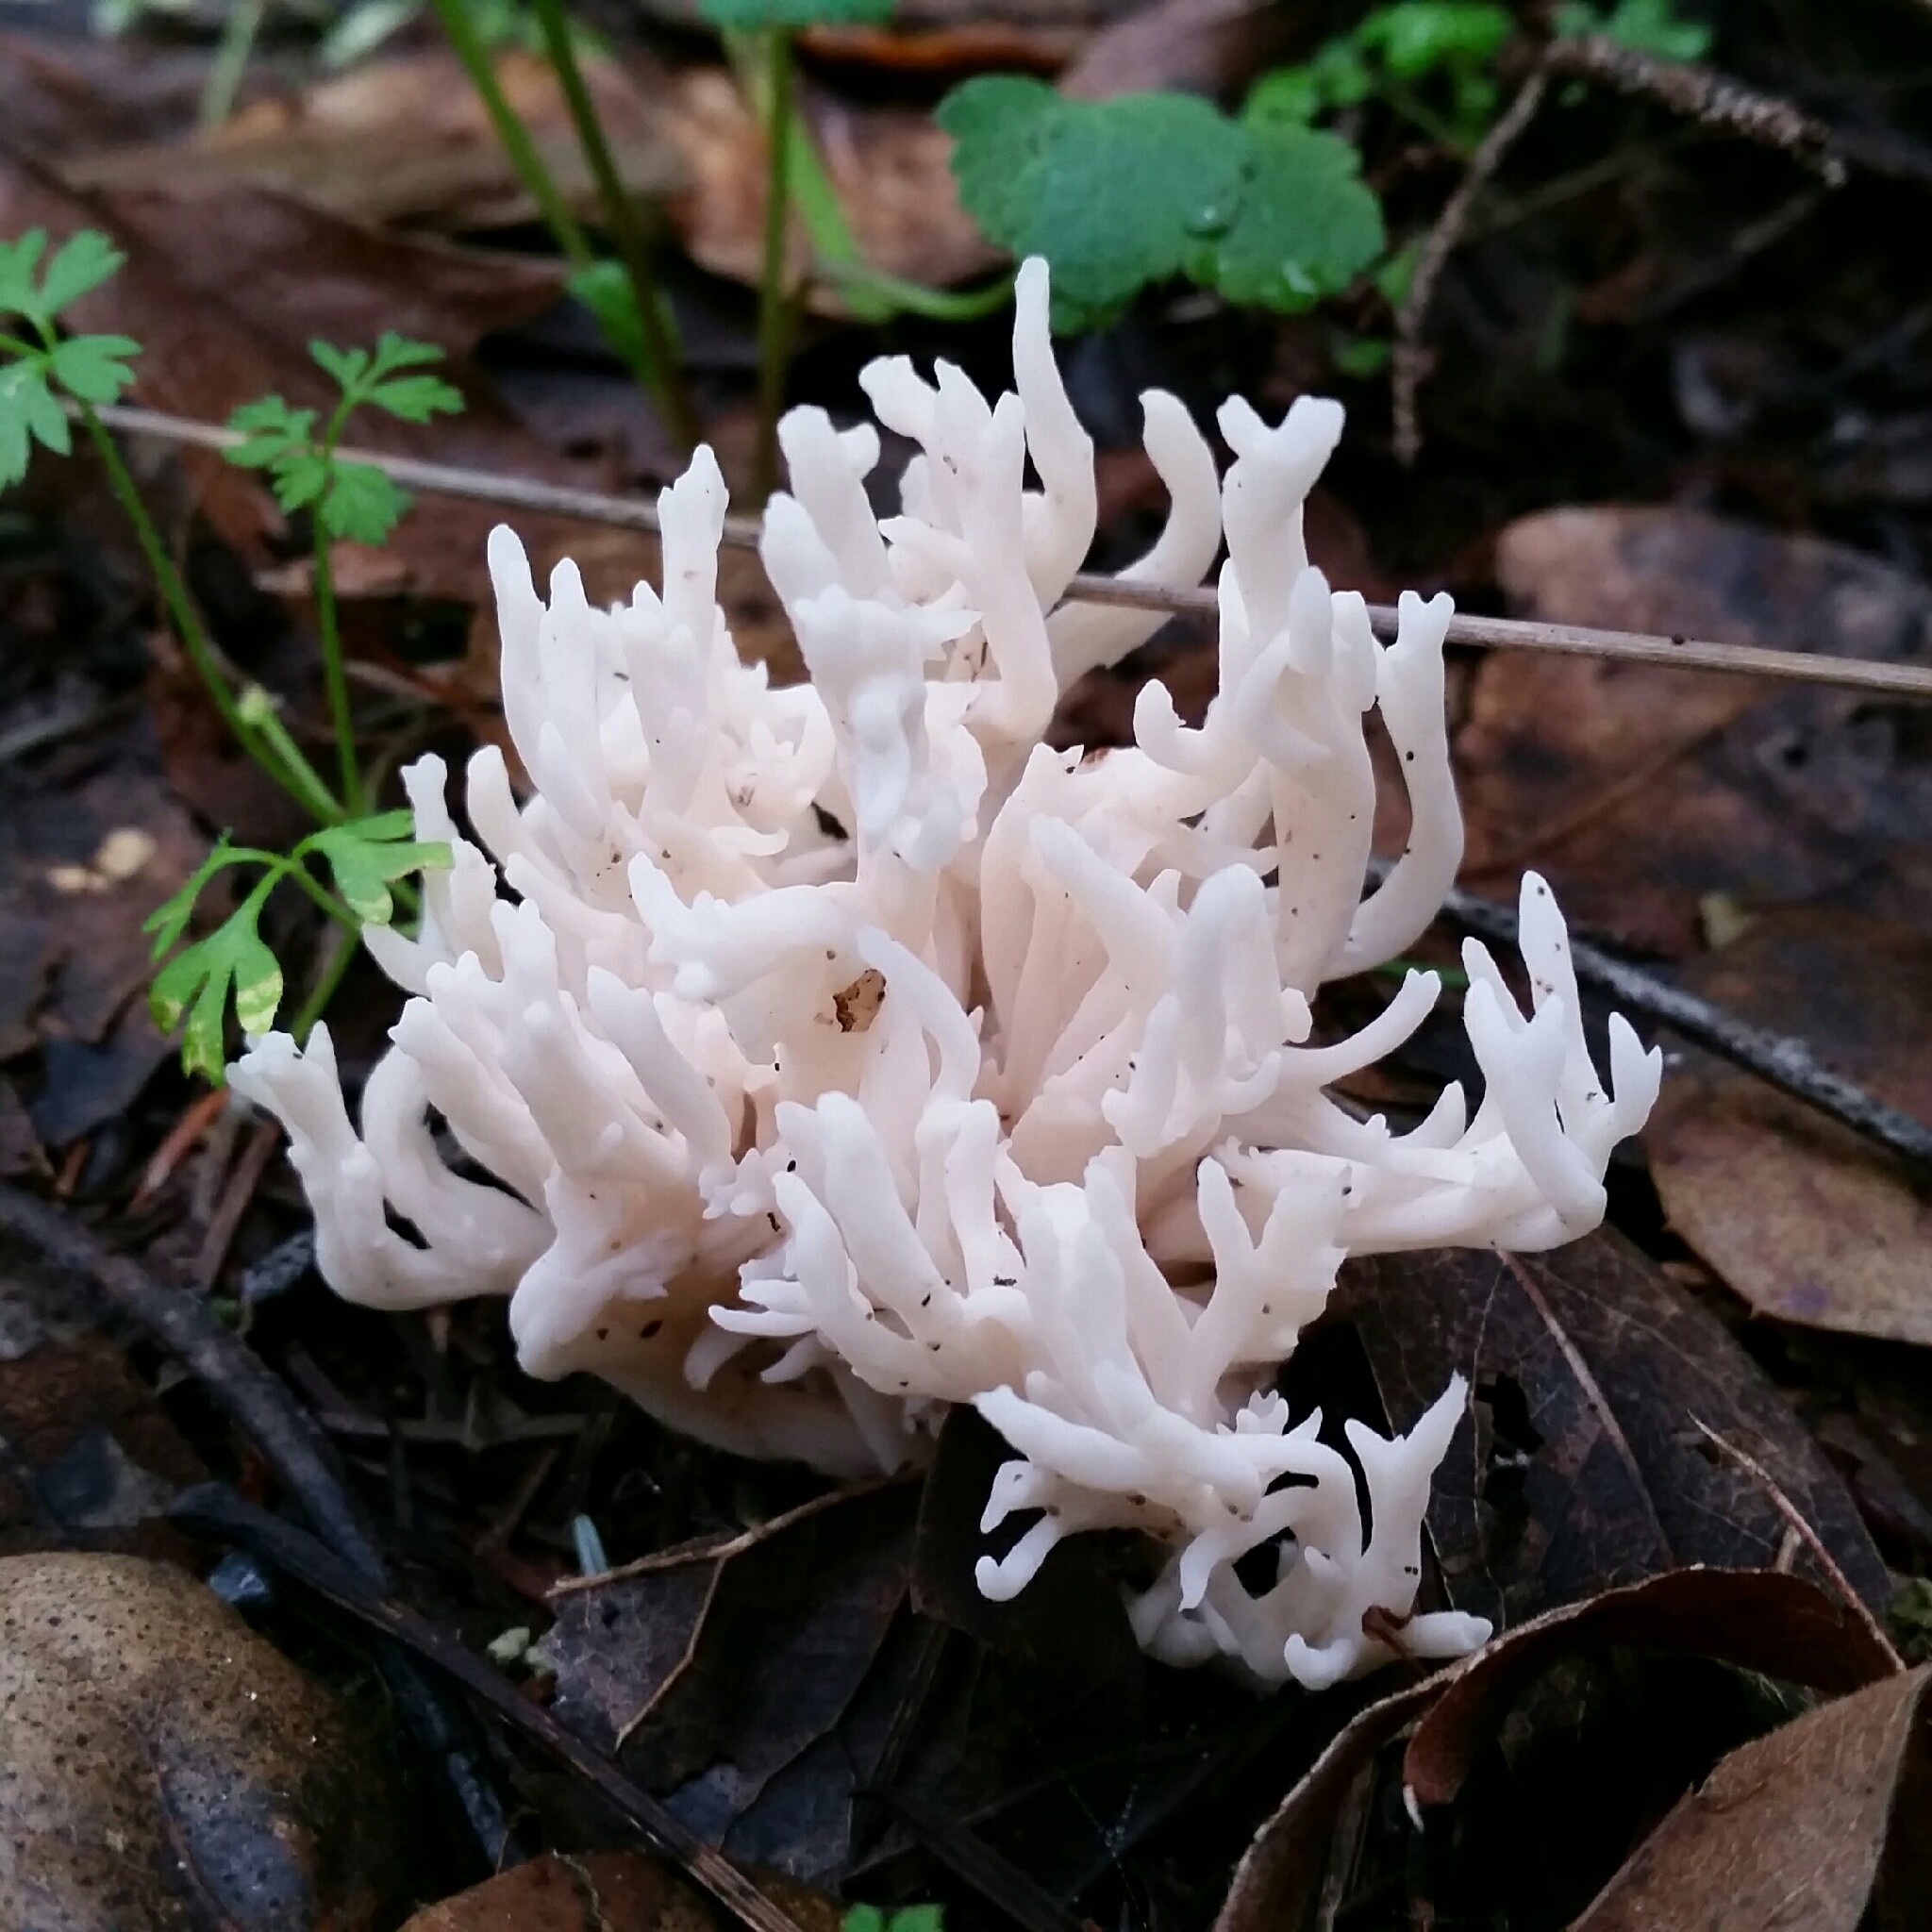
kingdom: Fungi
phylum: Basidiomycota
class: Agaricomycetes
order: Agaricales
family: Clavariaceae
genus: Ramariopsis
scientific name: Ramariopsis kunzei
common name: Ivory coral
